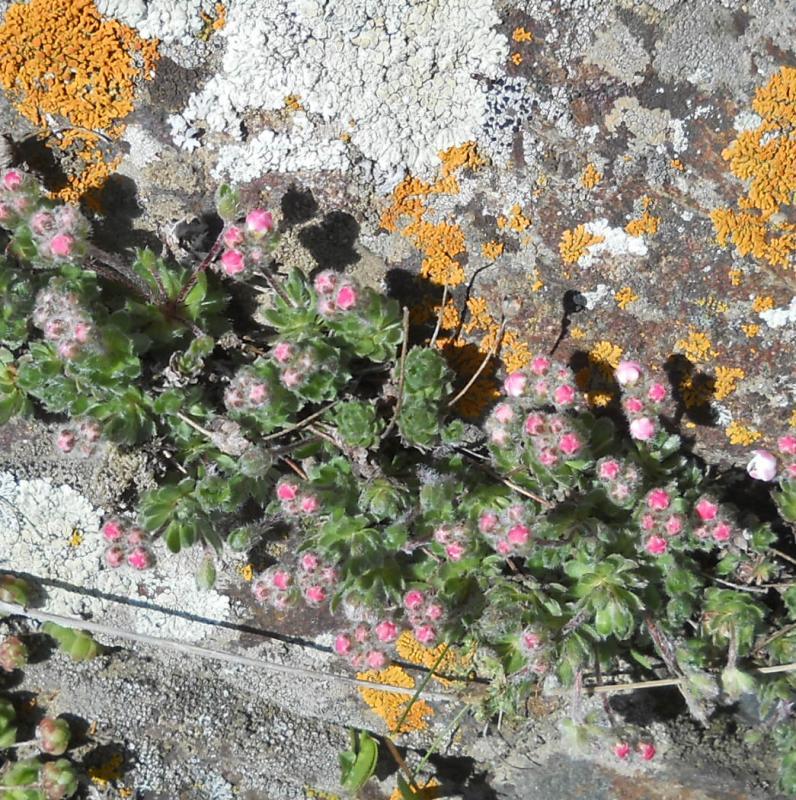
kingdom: Fungi
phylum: Ascomycota
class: Lecanoromycetes
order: Teloschistales
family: Teloschistaceae
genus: Xanthoria
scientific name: Xanthoria parietina
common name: Common orange lichen
